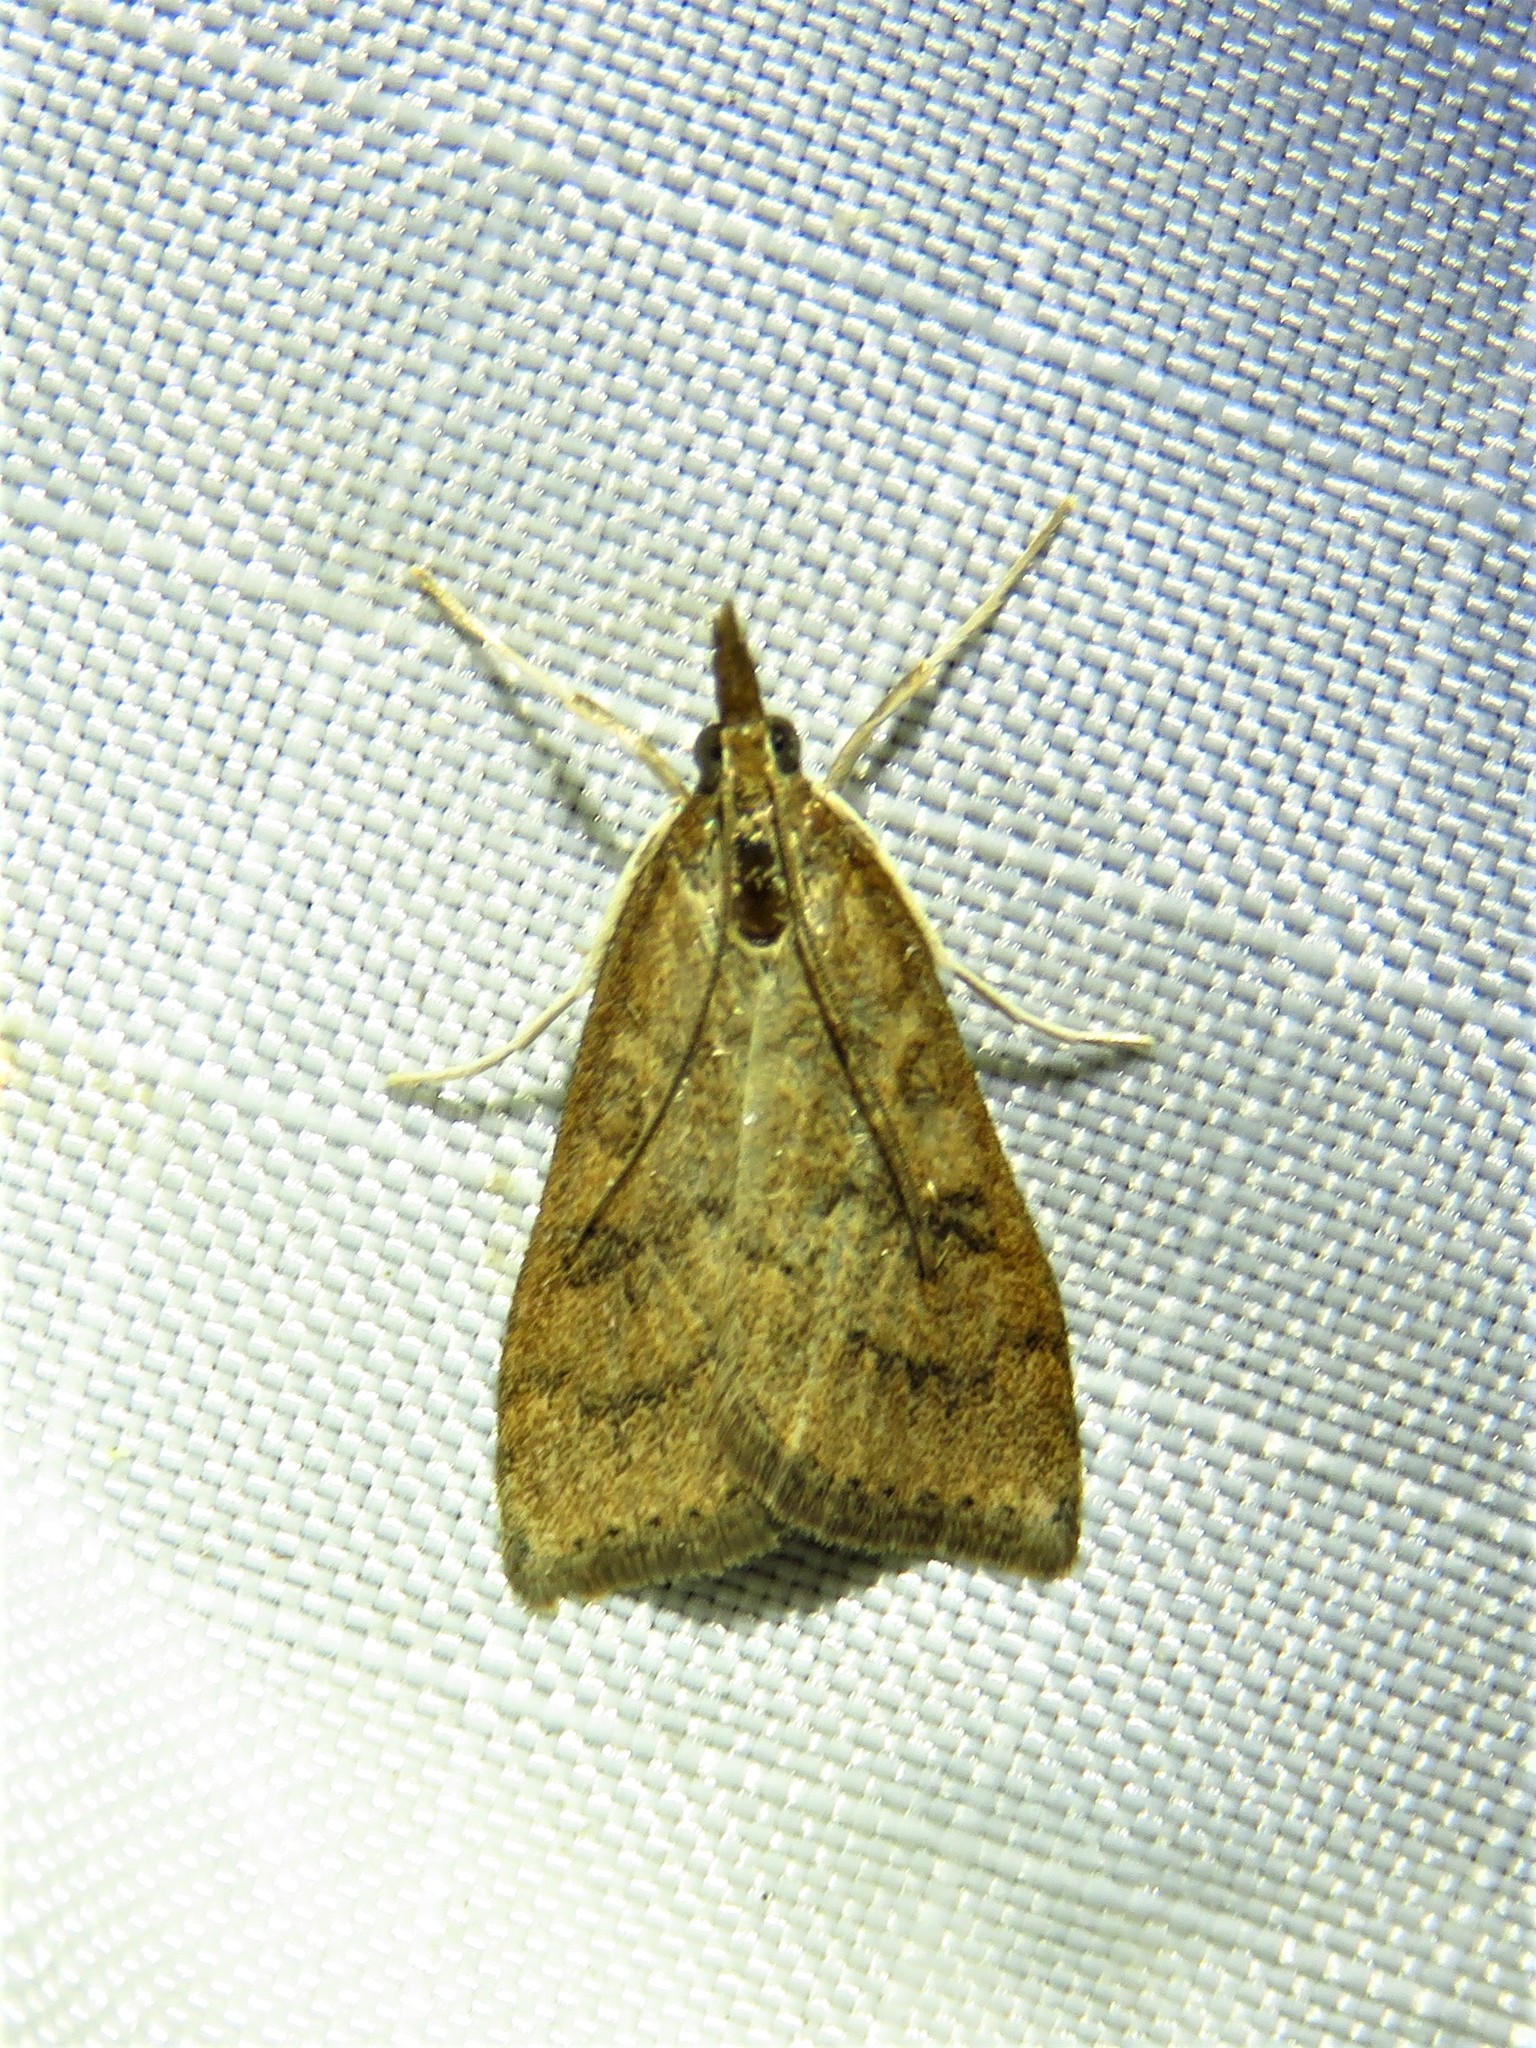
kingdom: Animalia
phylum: Arthropoda
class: Insecta
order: Lepidoptera
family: Crambidae
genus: Udea
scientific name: Udea rubigalis
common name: Celery leaftier moth
